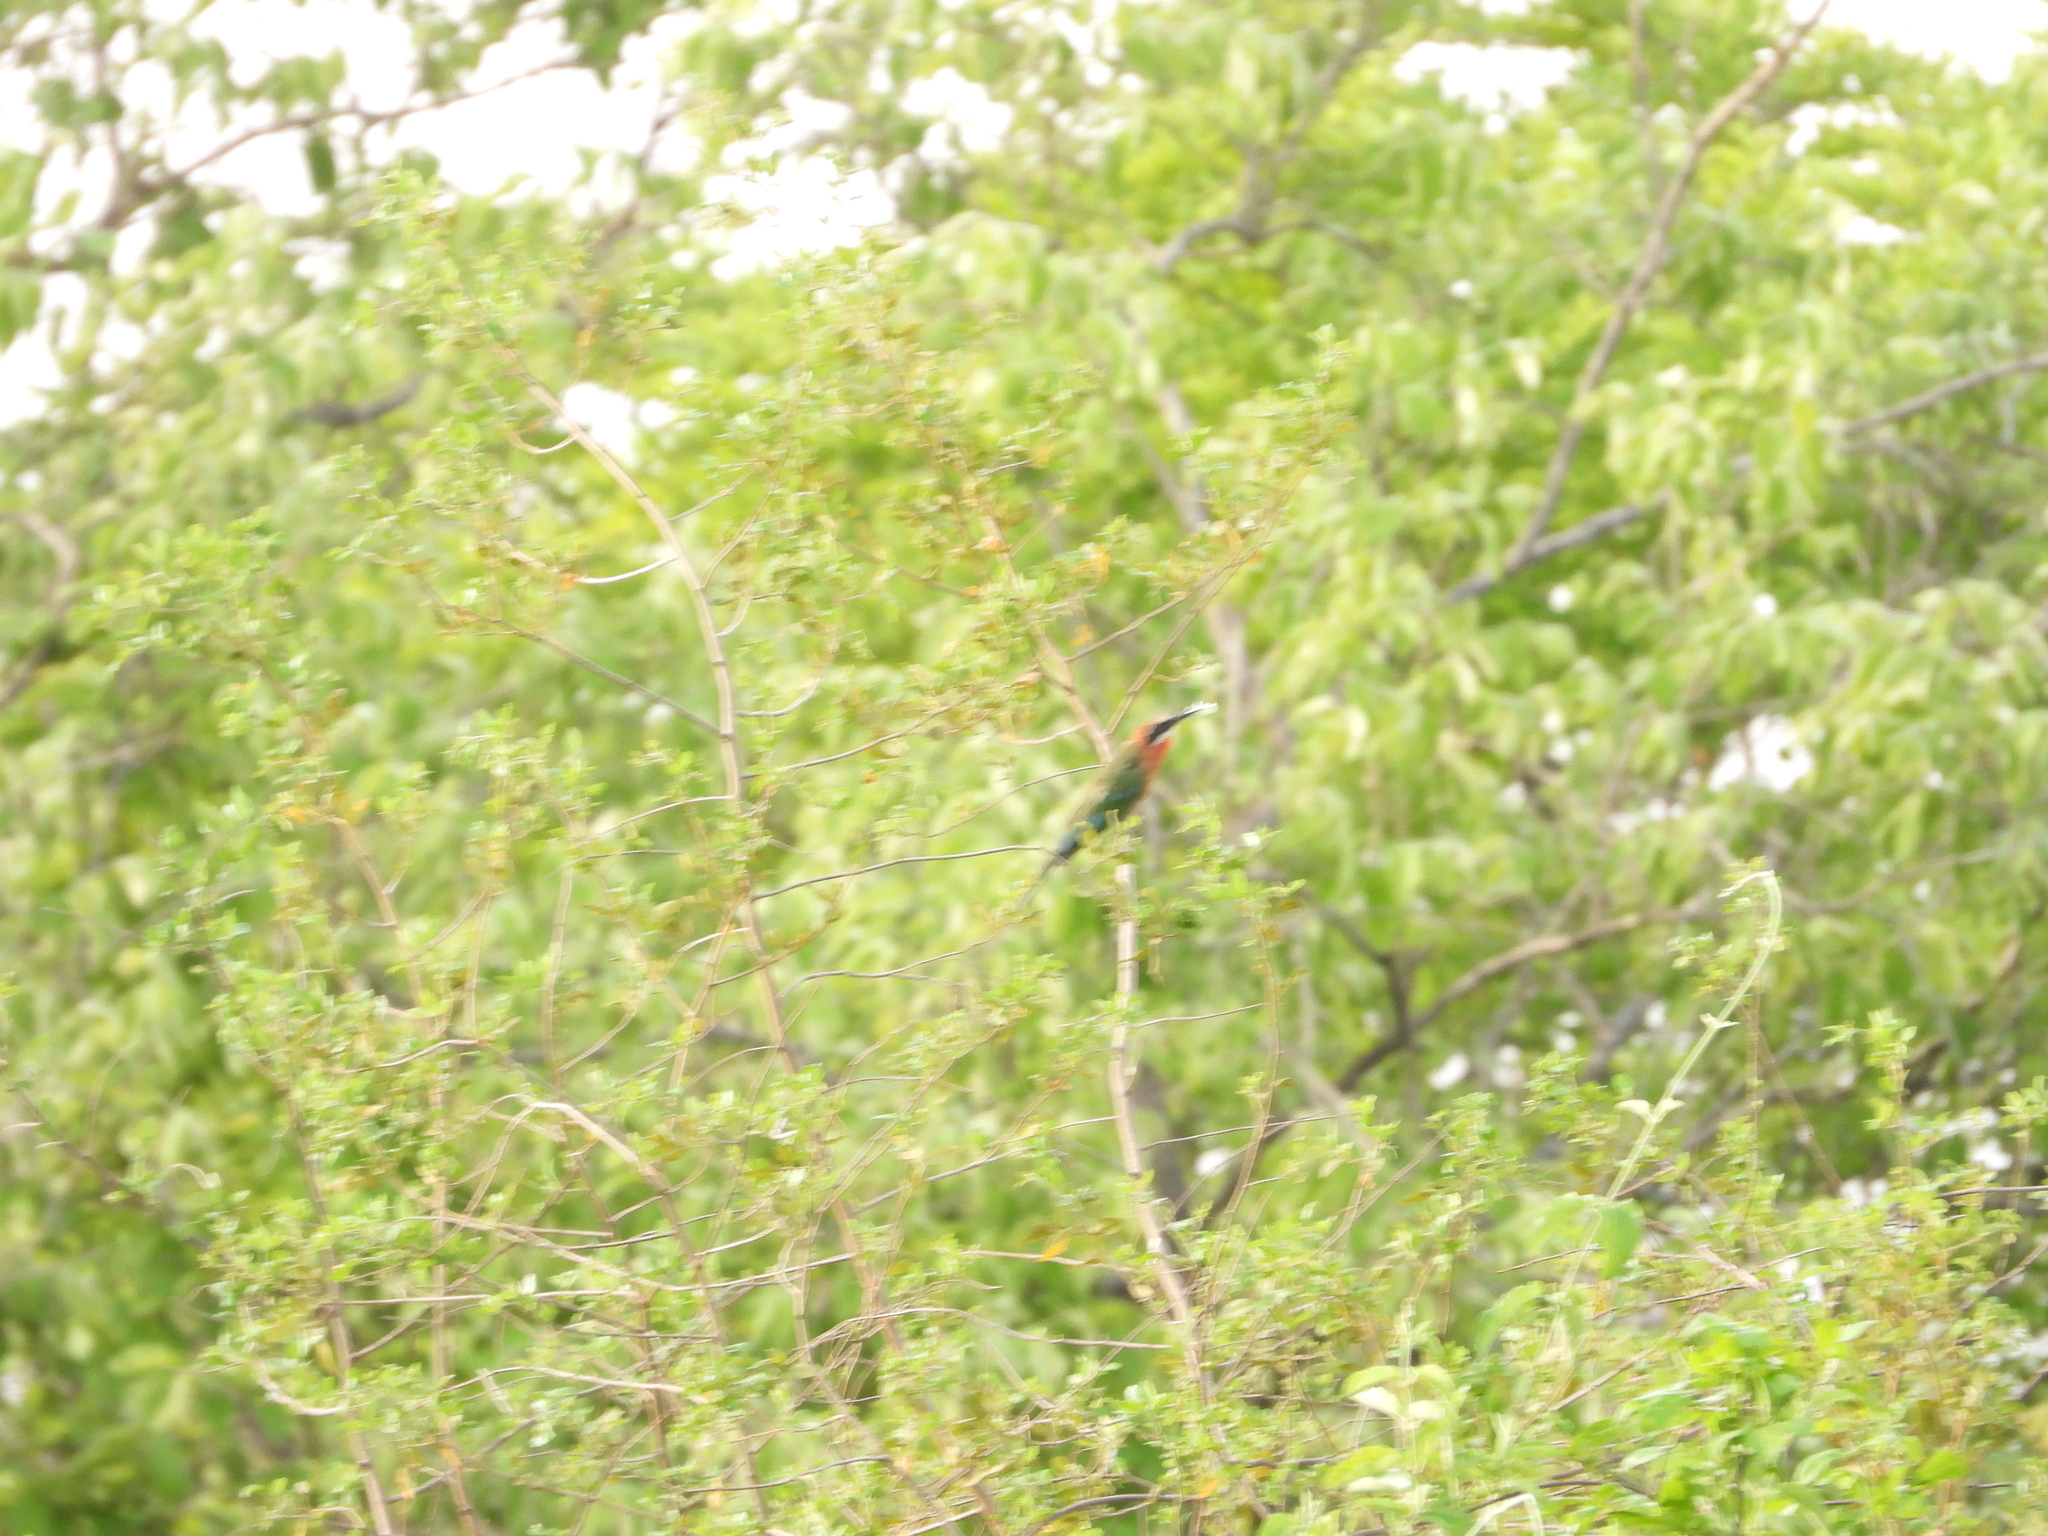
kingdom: Animalia
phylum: Chordata
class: Aves
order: Coraciiformes
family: Meropidae
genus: Merops
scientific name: Merops bullockoides
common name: White-fronted bee-eater
